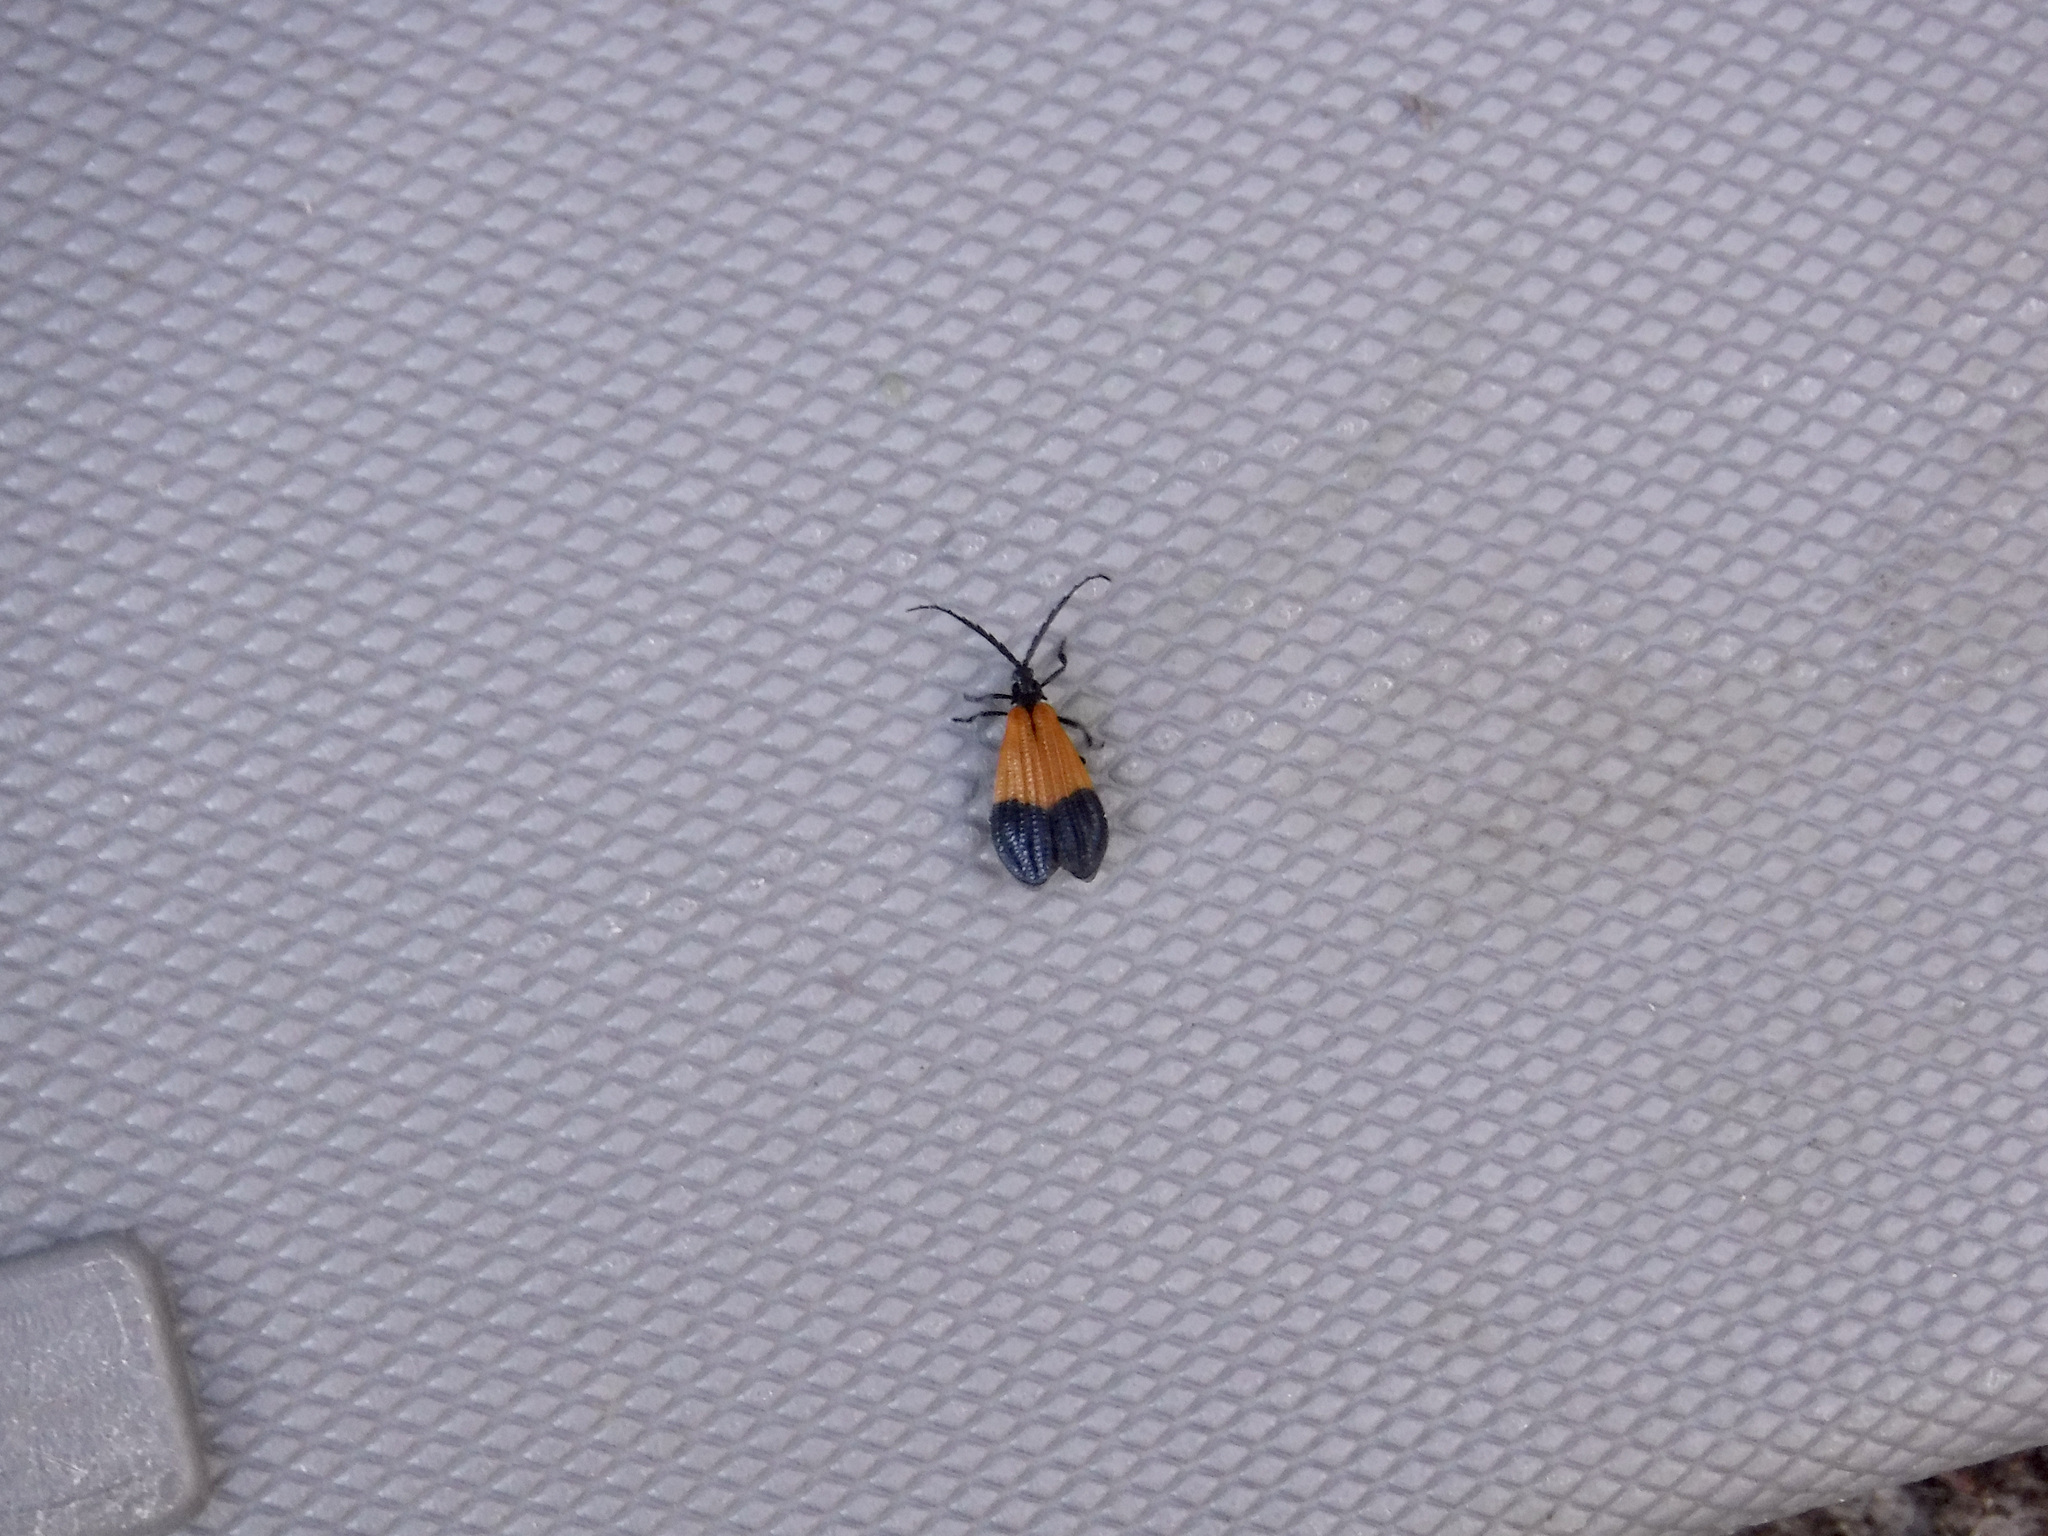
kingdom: Animalia
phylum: Arthropoda
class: Insecta
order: Coleoptera
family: Lycidae
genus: Calopteron
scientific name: Calopteron terminale
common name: End band net-winged beetle
